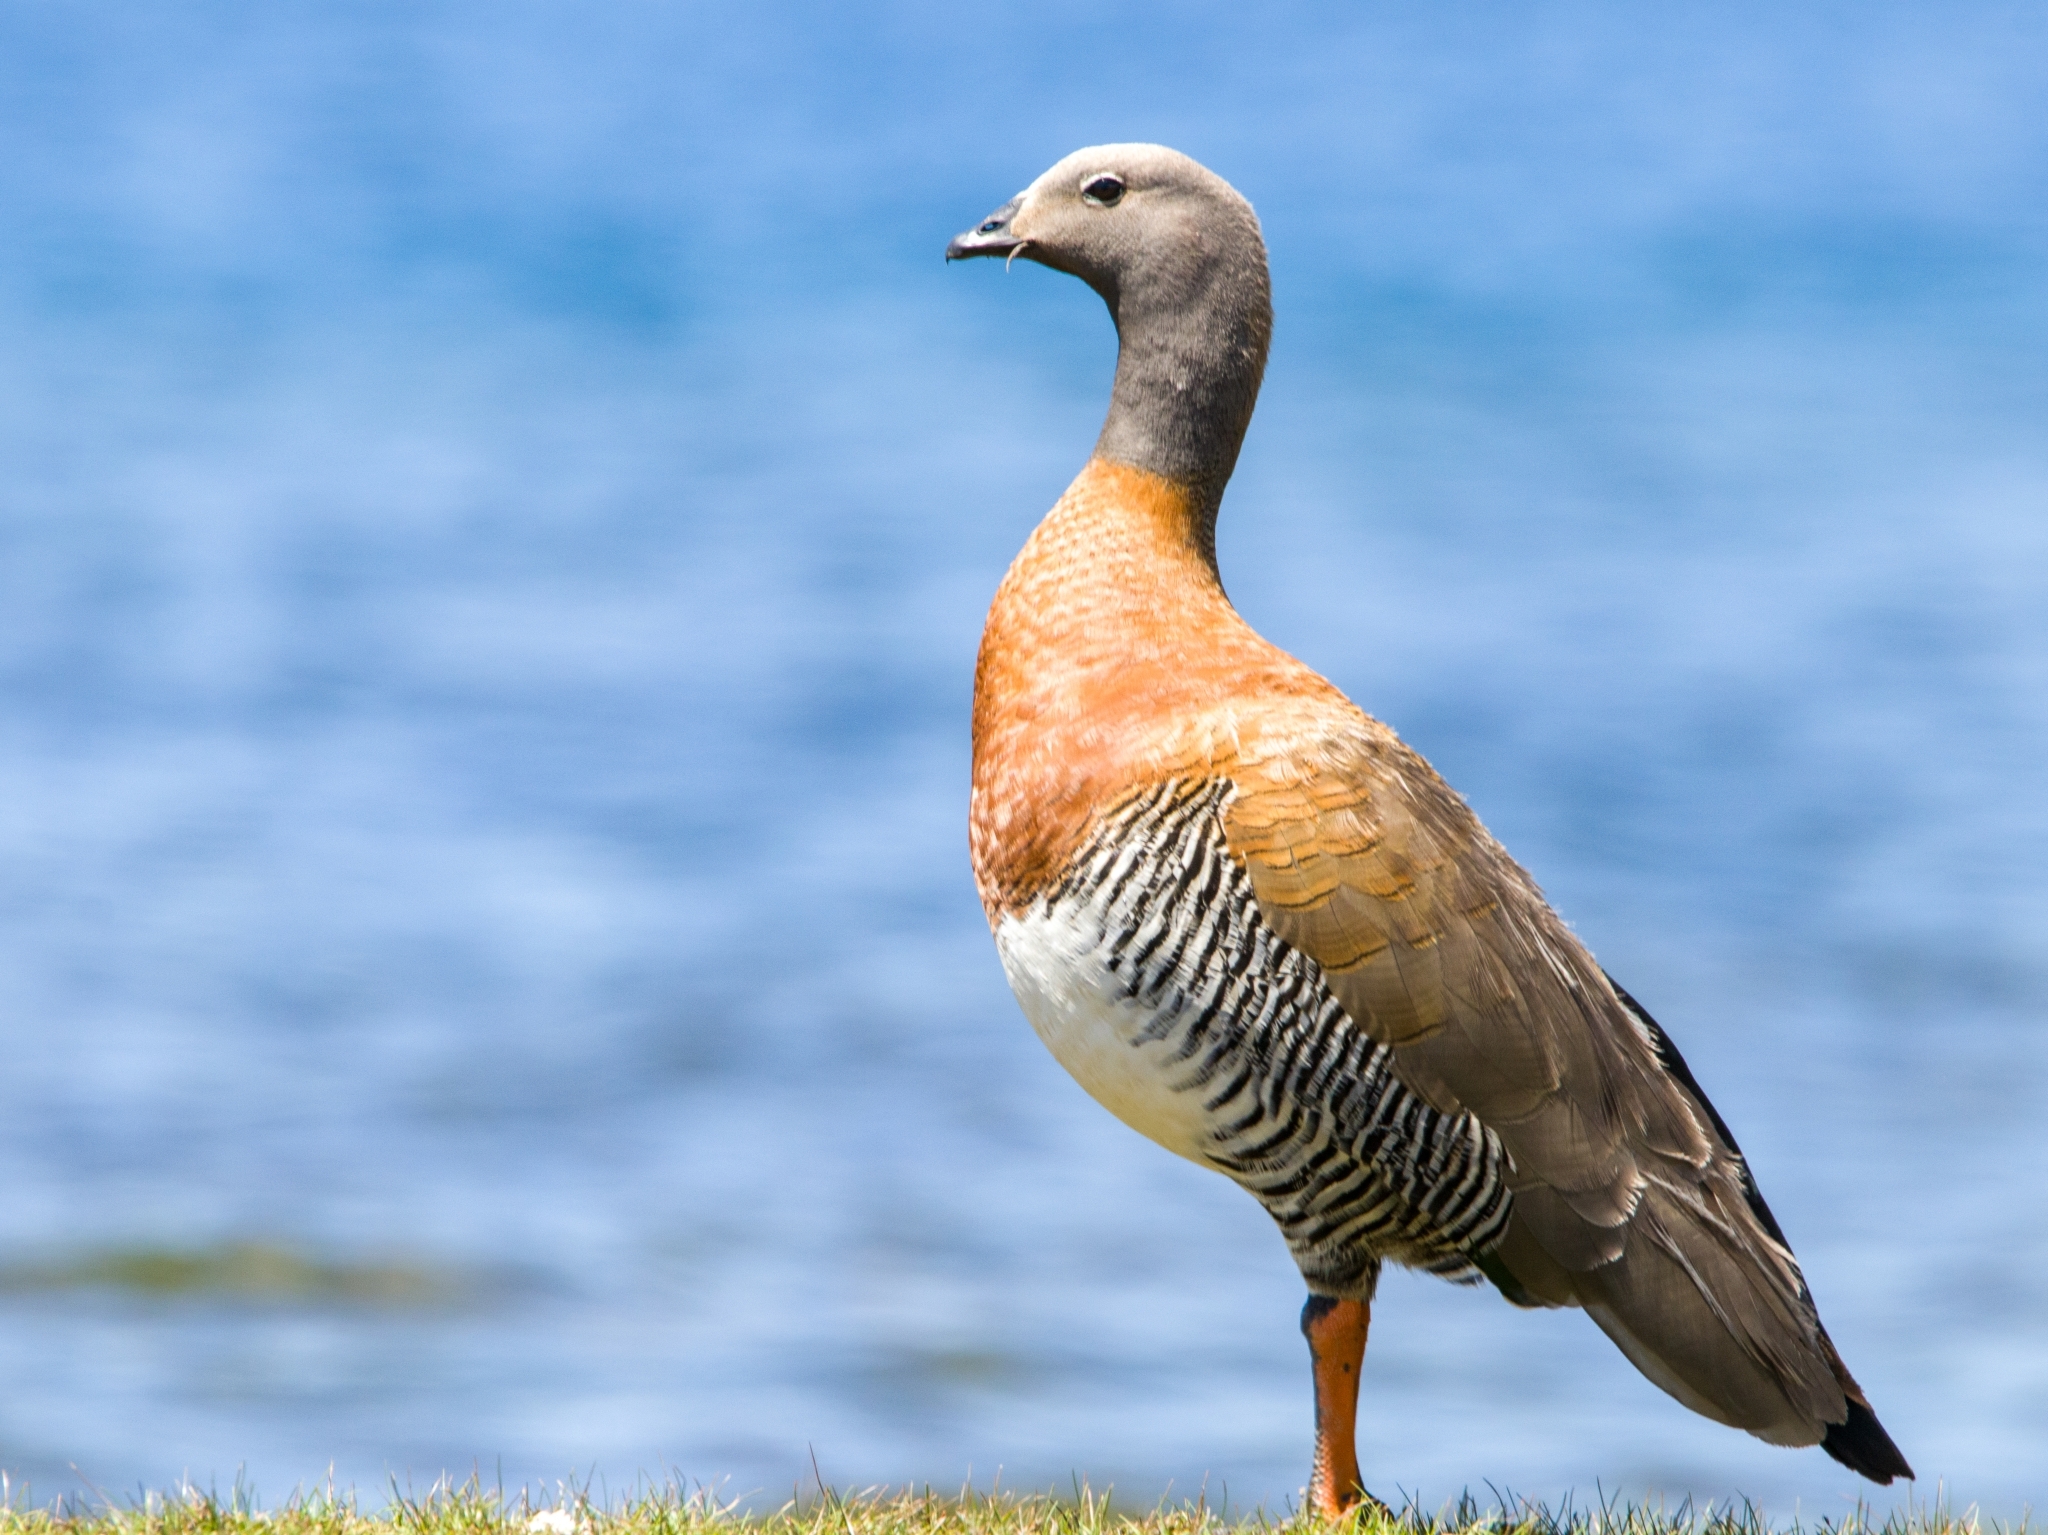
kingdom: Animalia
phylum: Chordata
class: Aves
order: Anseriformes
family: Anatidae
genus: Chloephaga
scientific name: Chloephaga poliocephala
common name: Ashy-headed goose
